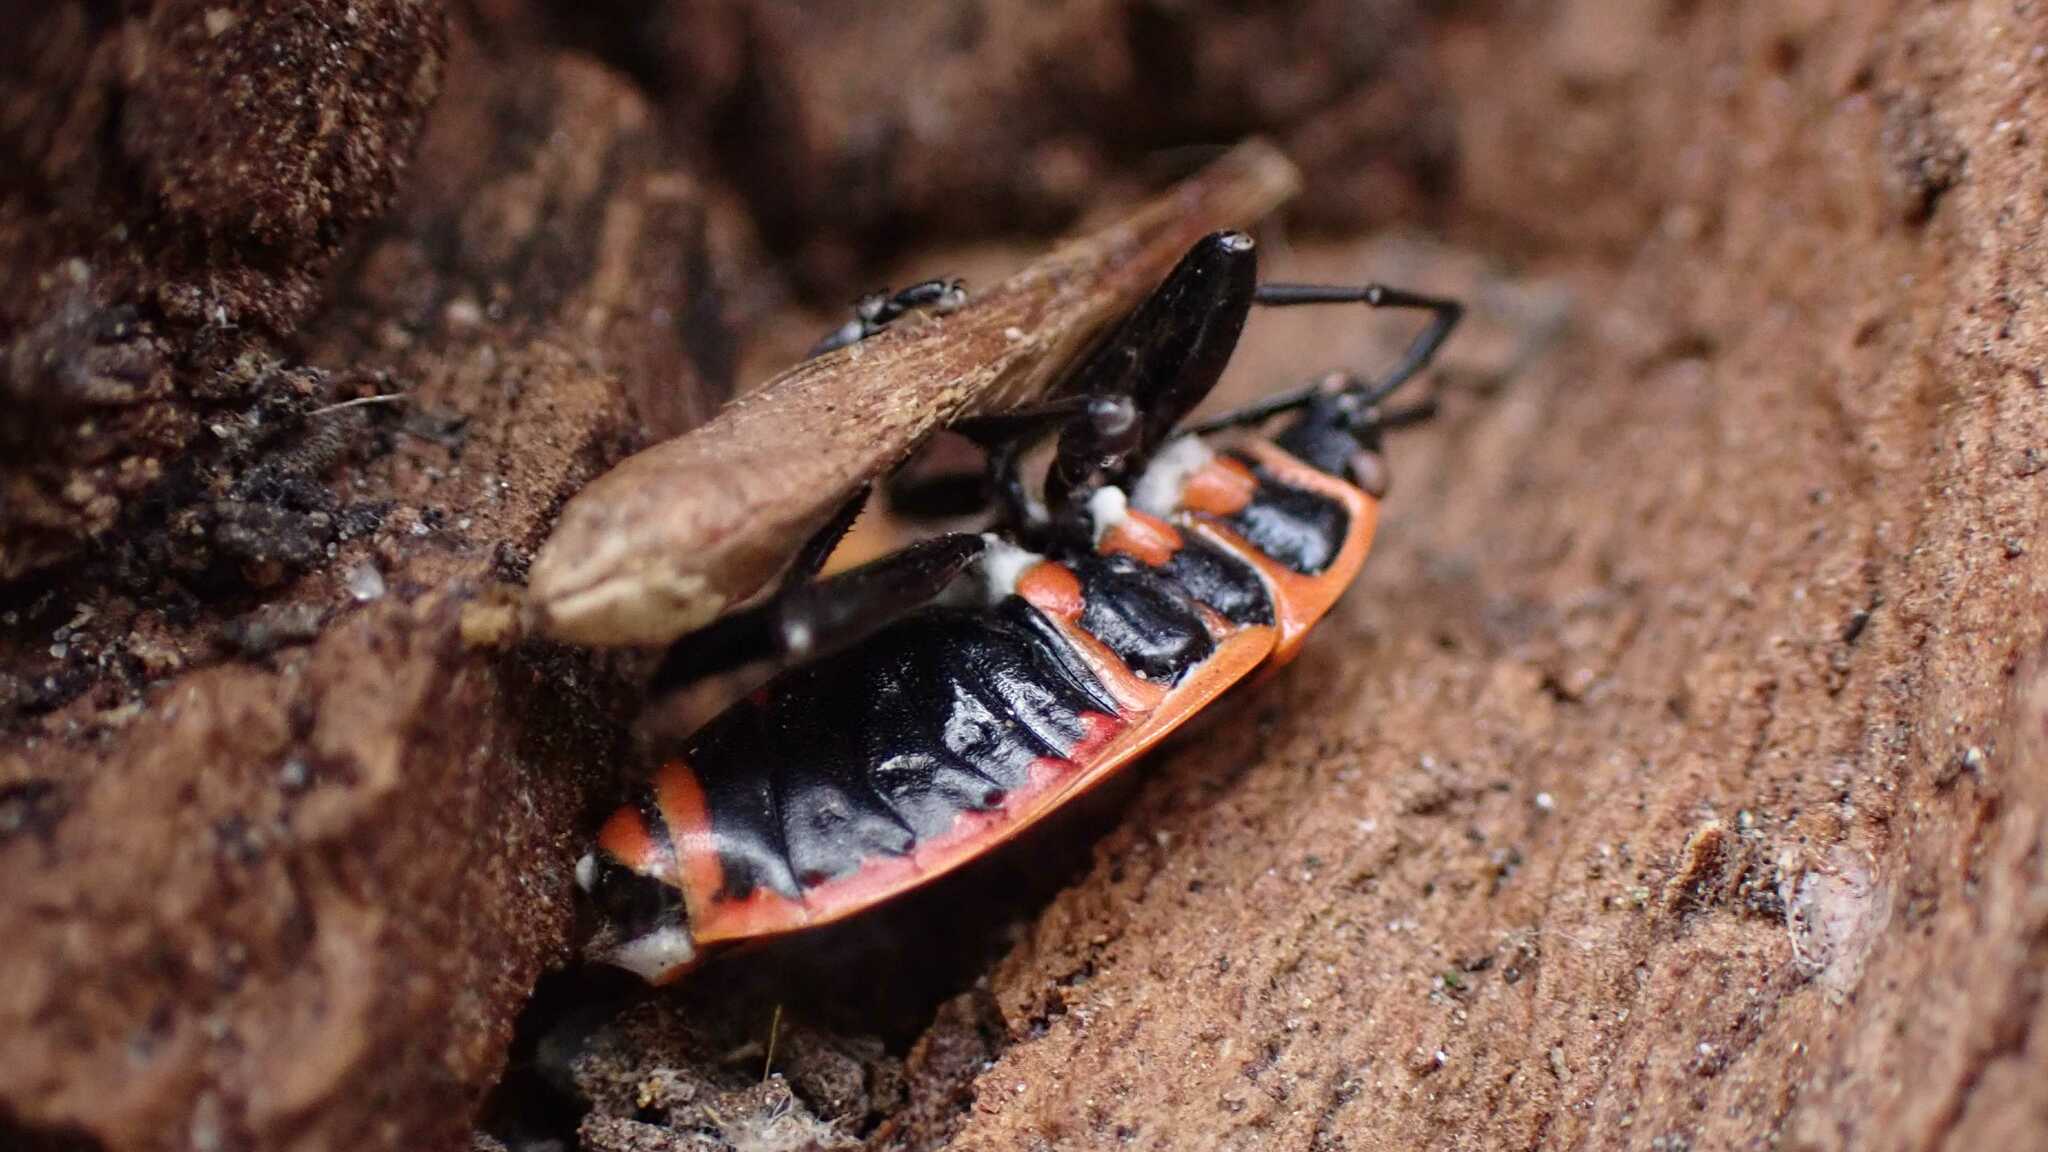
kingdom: Animalia
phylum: Arthropoda
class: Insecta
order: Hemiptera
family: Pyrrhocoridae
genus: Pyrrhocoris
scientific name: Pyrrhocoris apterus
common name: Firebug
